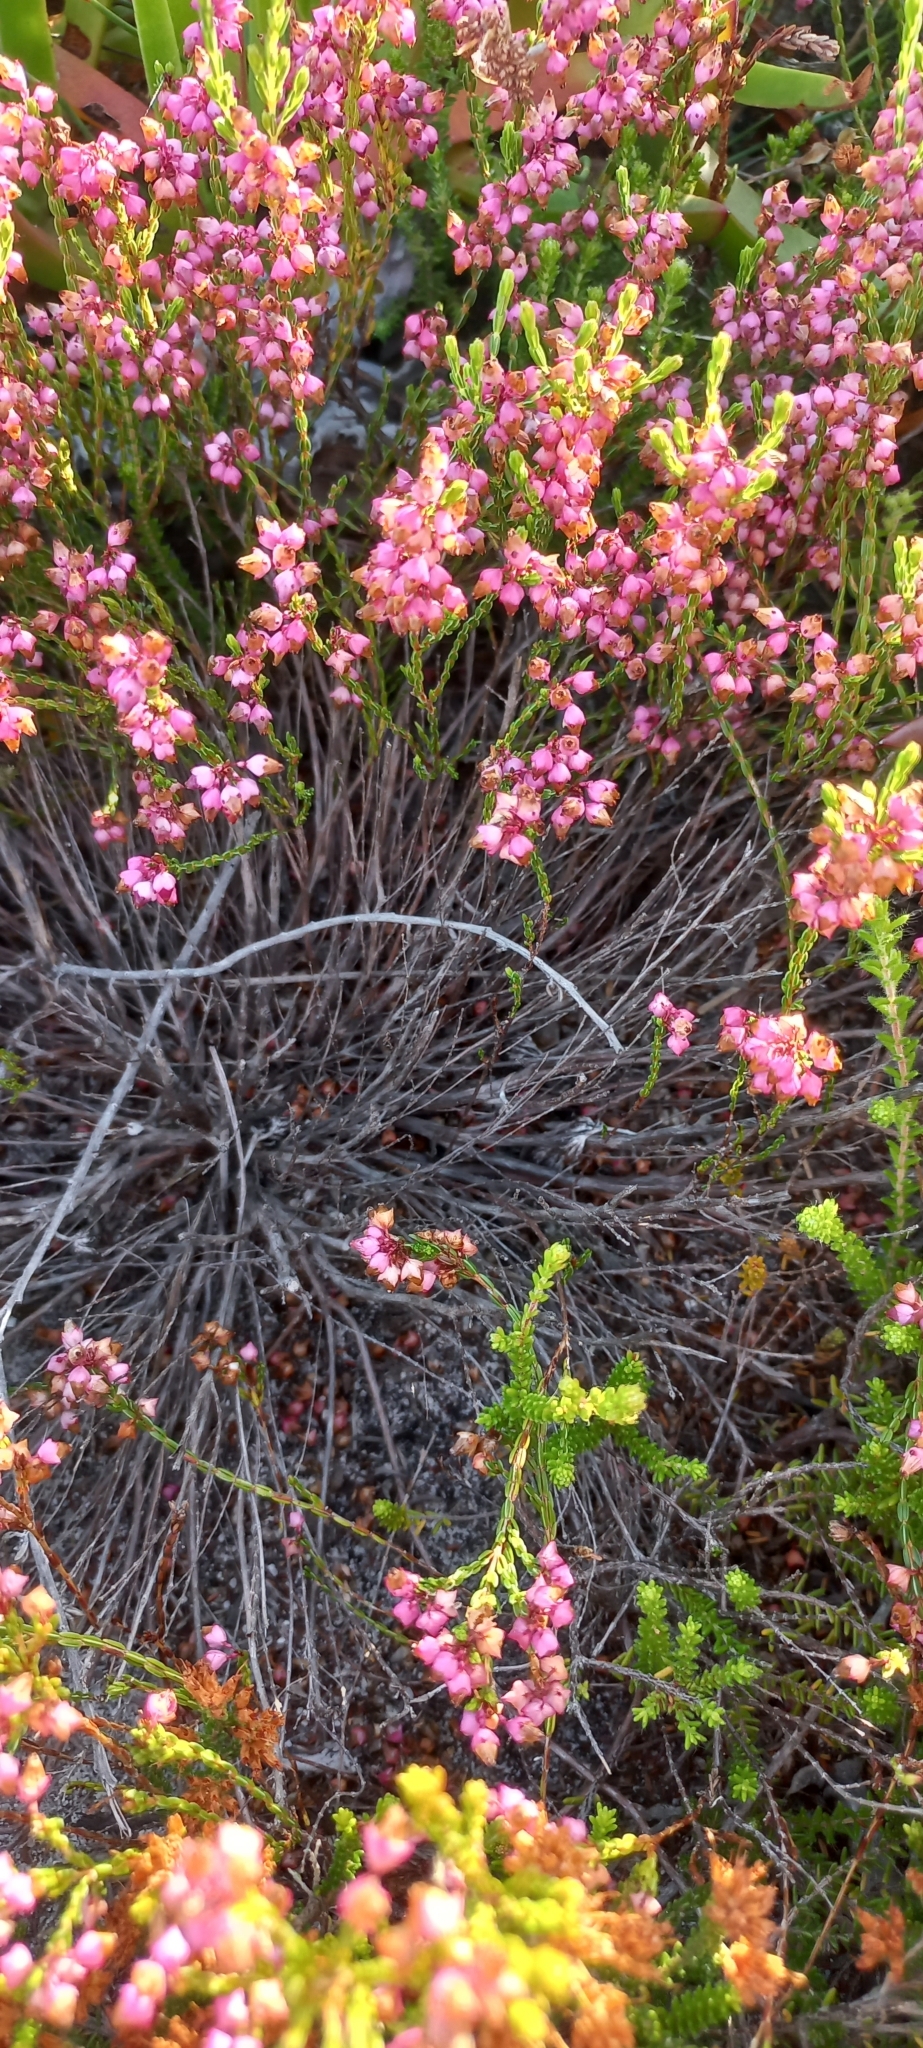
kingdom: Plantae
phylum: Tracheophyta
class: Magnoliopsida
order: Ericales
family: Ericaceae
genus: Erica
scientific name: Erica rhopalantha
